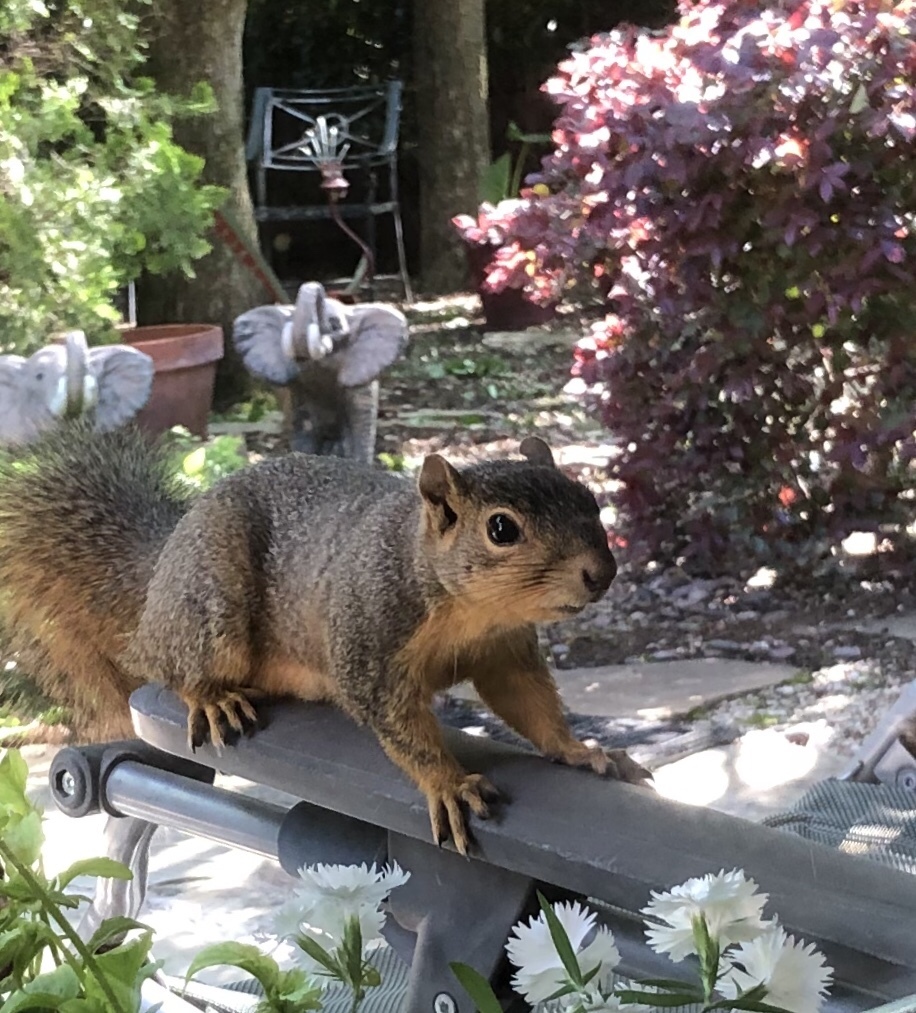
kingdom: Animalia
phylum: Chordata
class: Mammalia
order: Rodentia
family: Sciuridae
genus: Sciurus
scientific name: Sciurus niger
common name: Fox squirrel
